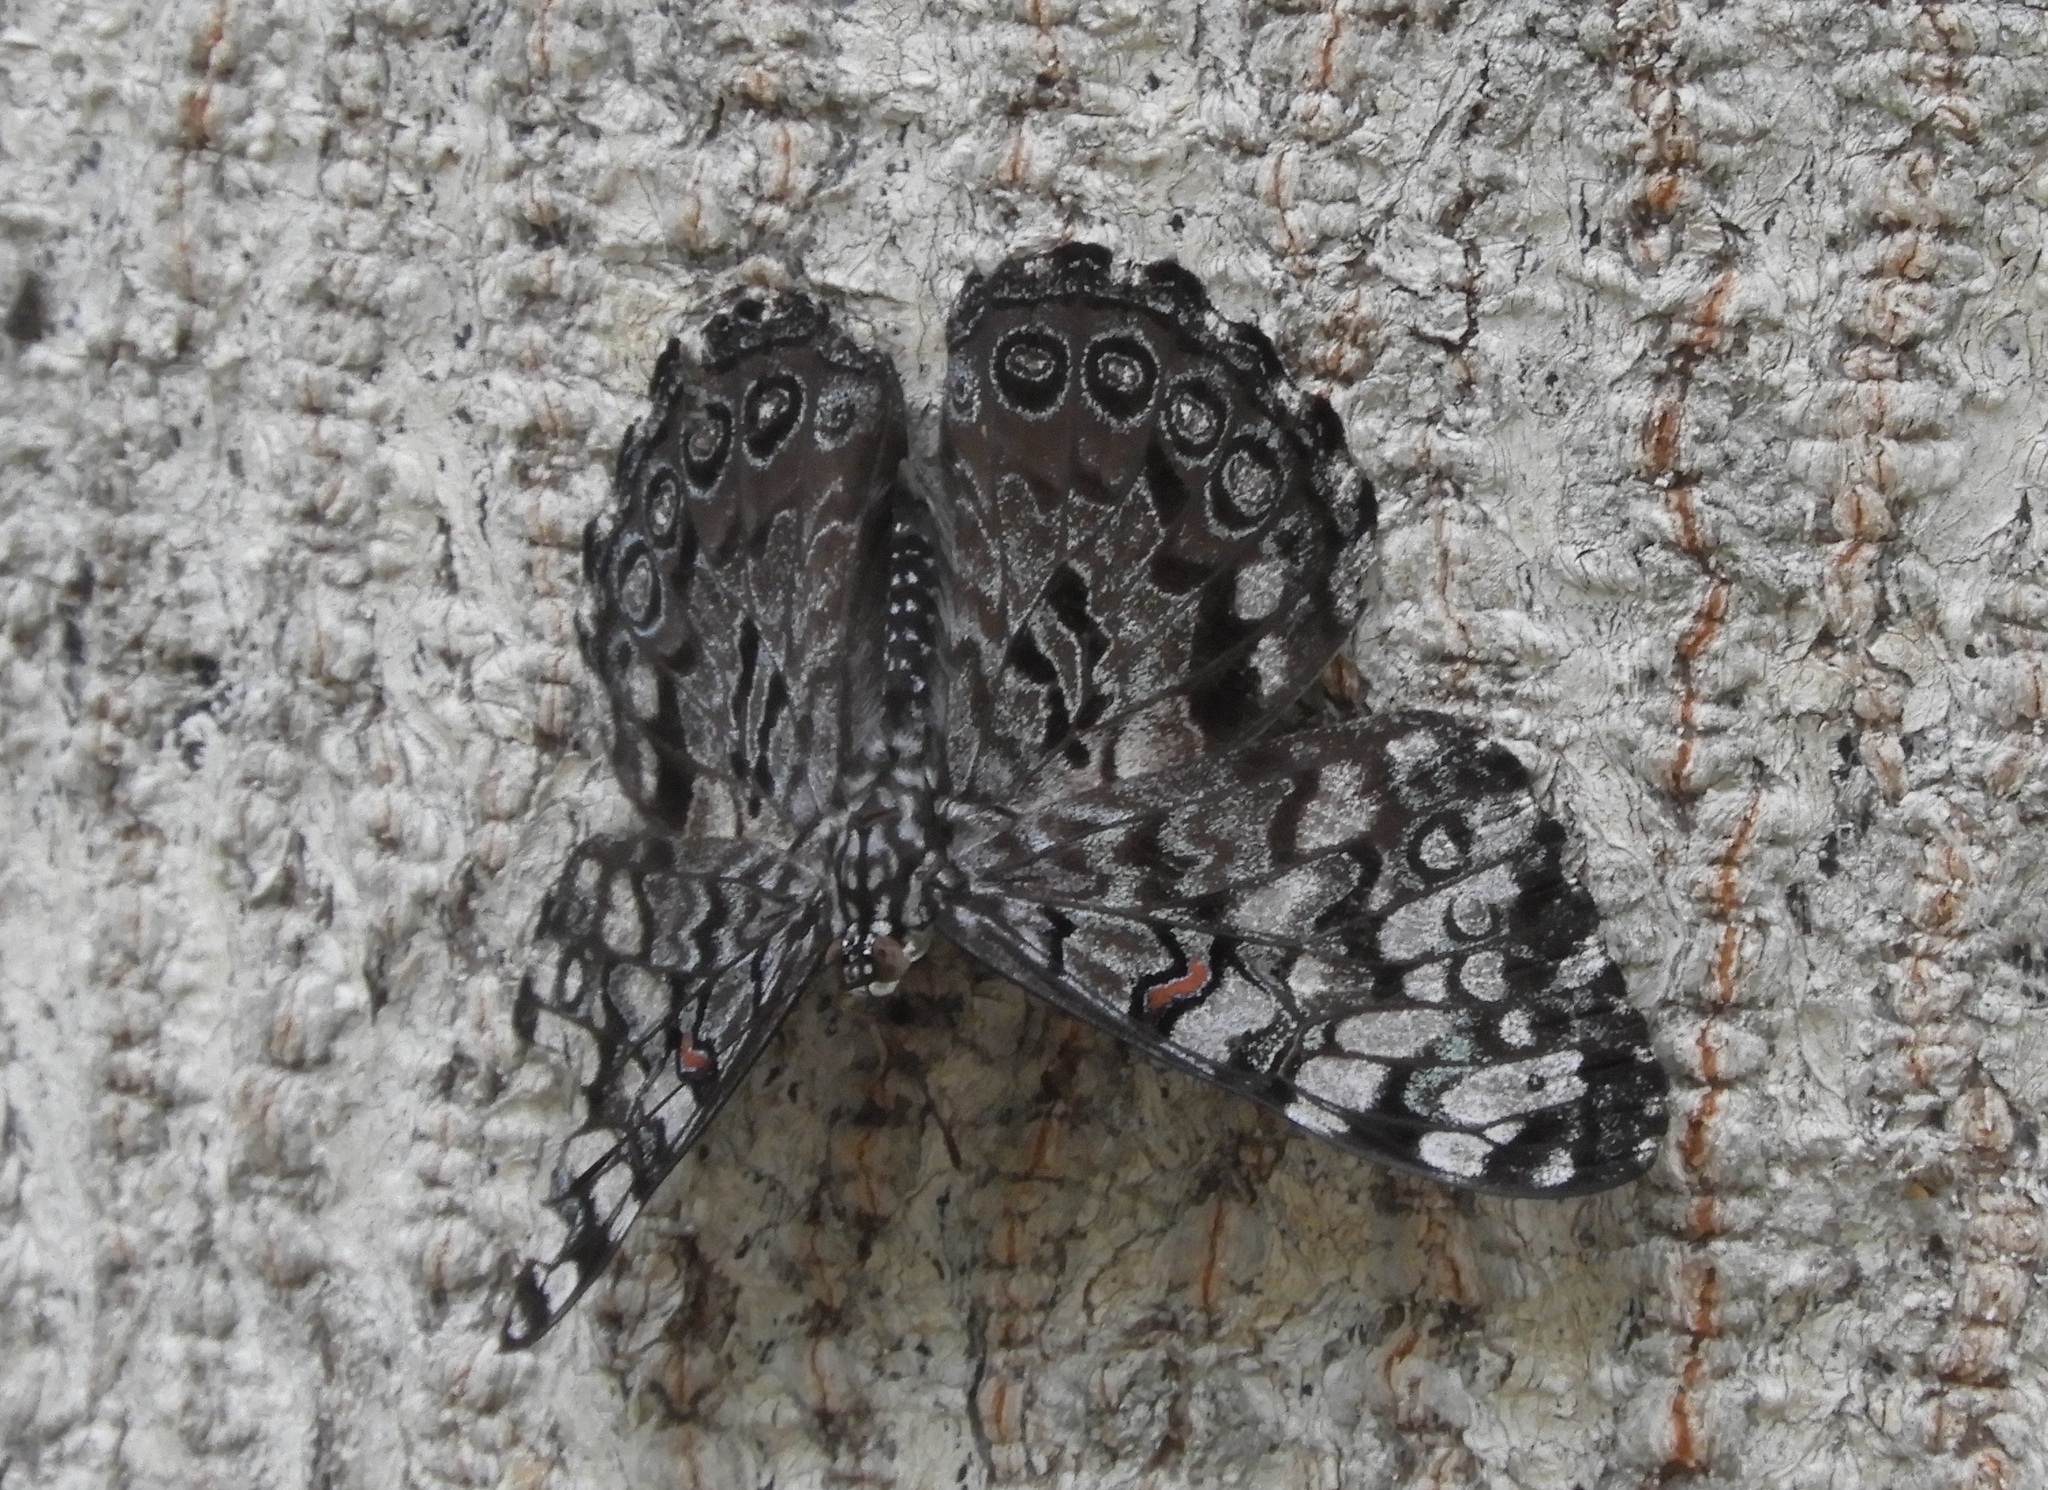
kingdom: Animalia
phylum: Arthropoda
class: Insecta
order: Lepidoptera
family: Nymphalidae
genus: Hamadryas
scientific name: Hamadryas guatemalena
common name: Guatemalan cracker
